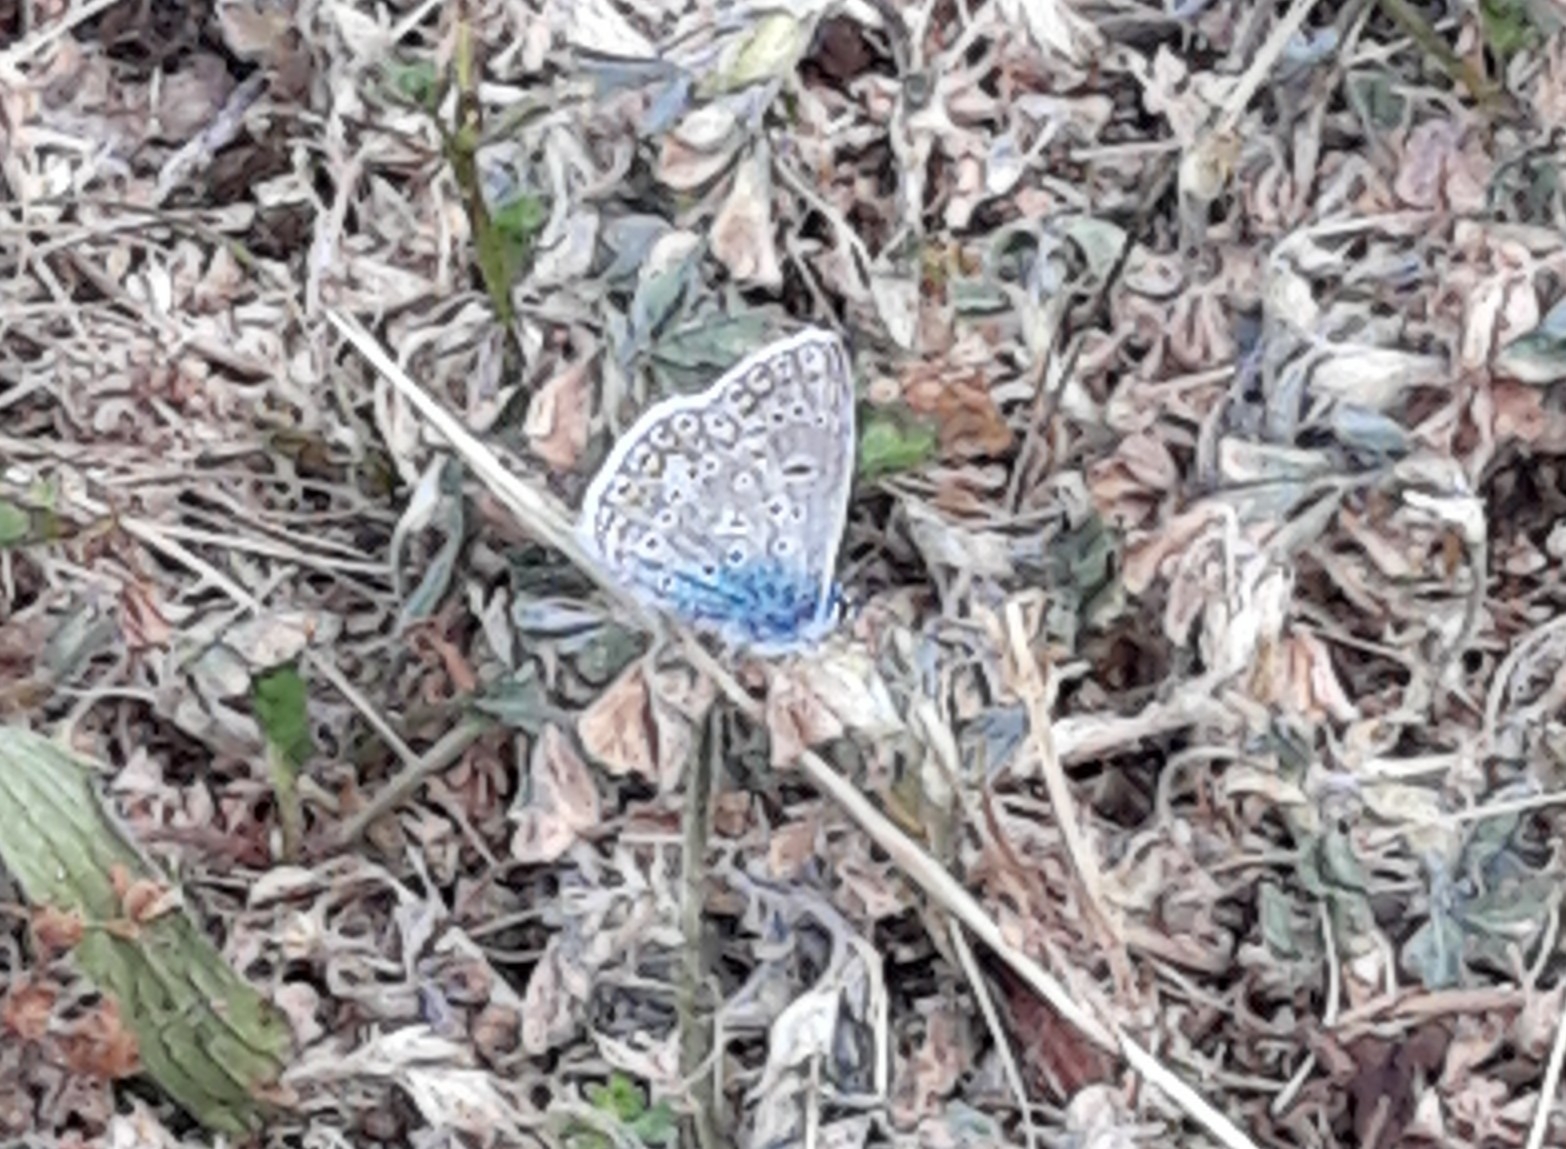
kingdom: Animalia
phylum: Arthropoda
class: Insecta
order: Lepidoptera
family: Lycaenidae
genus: Polyommatus
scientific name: Polyommatus icarus
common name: Common blue
